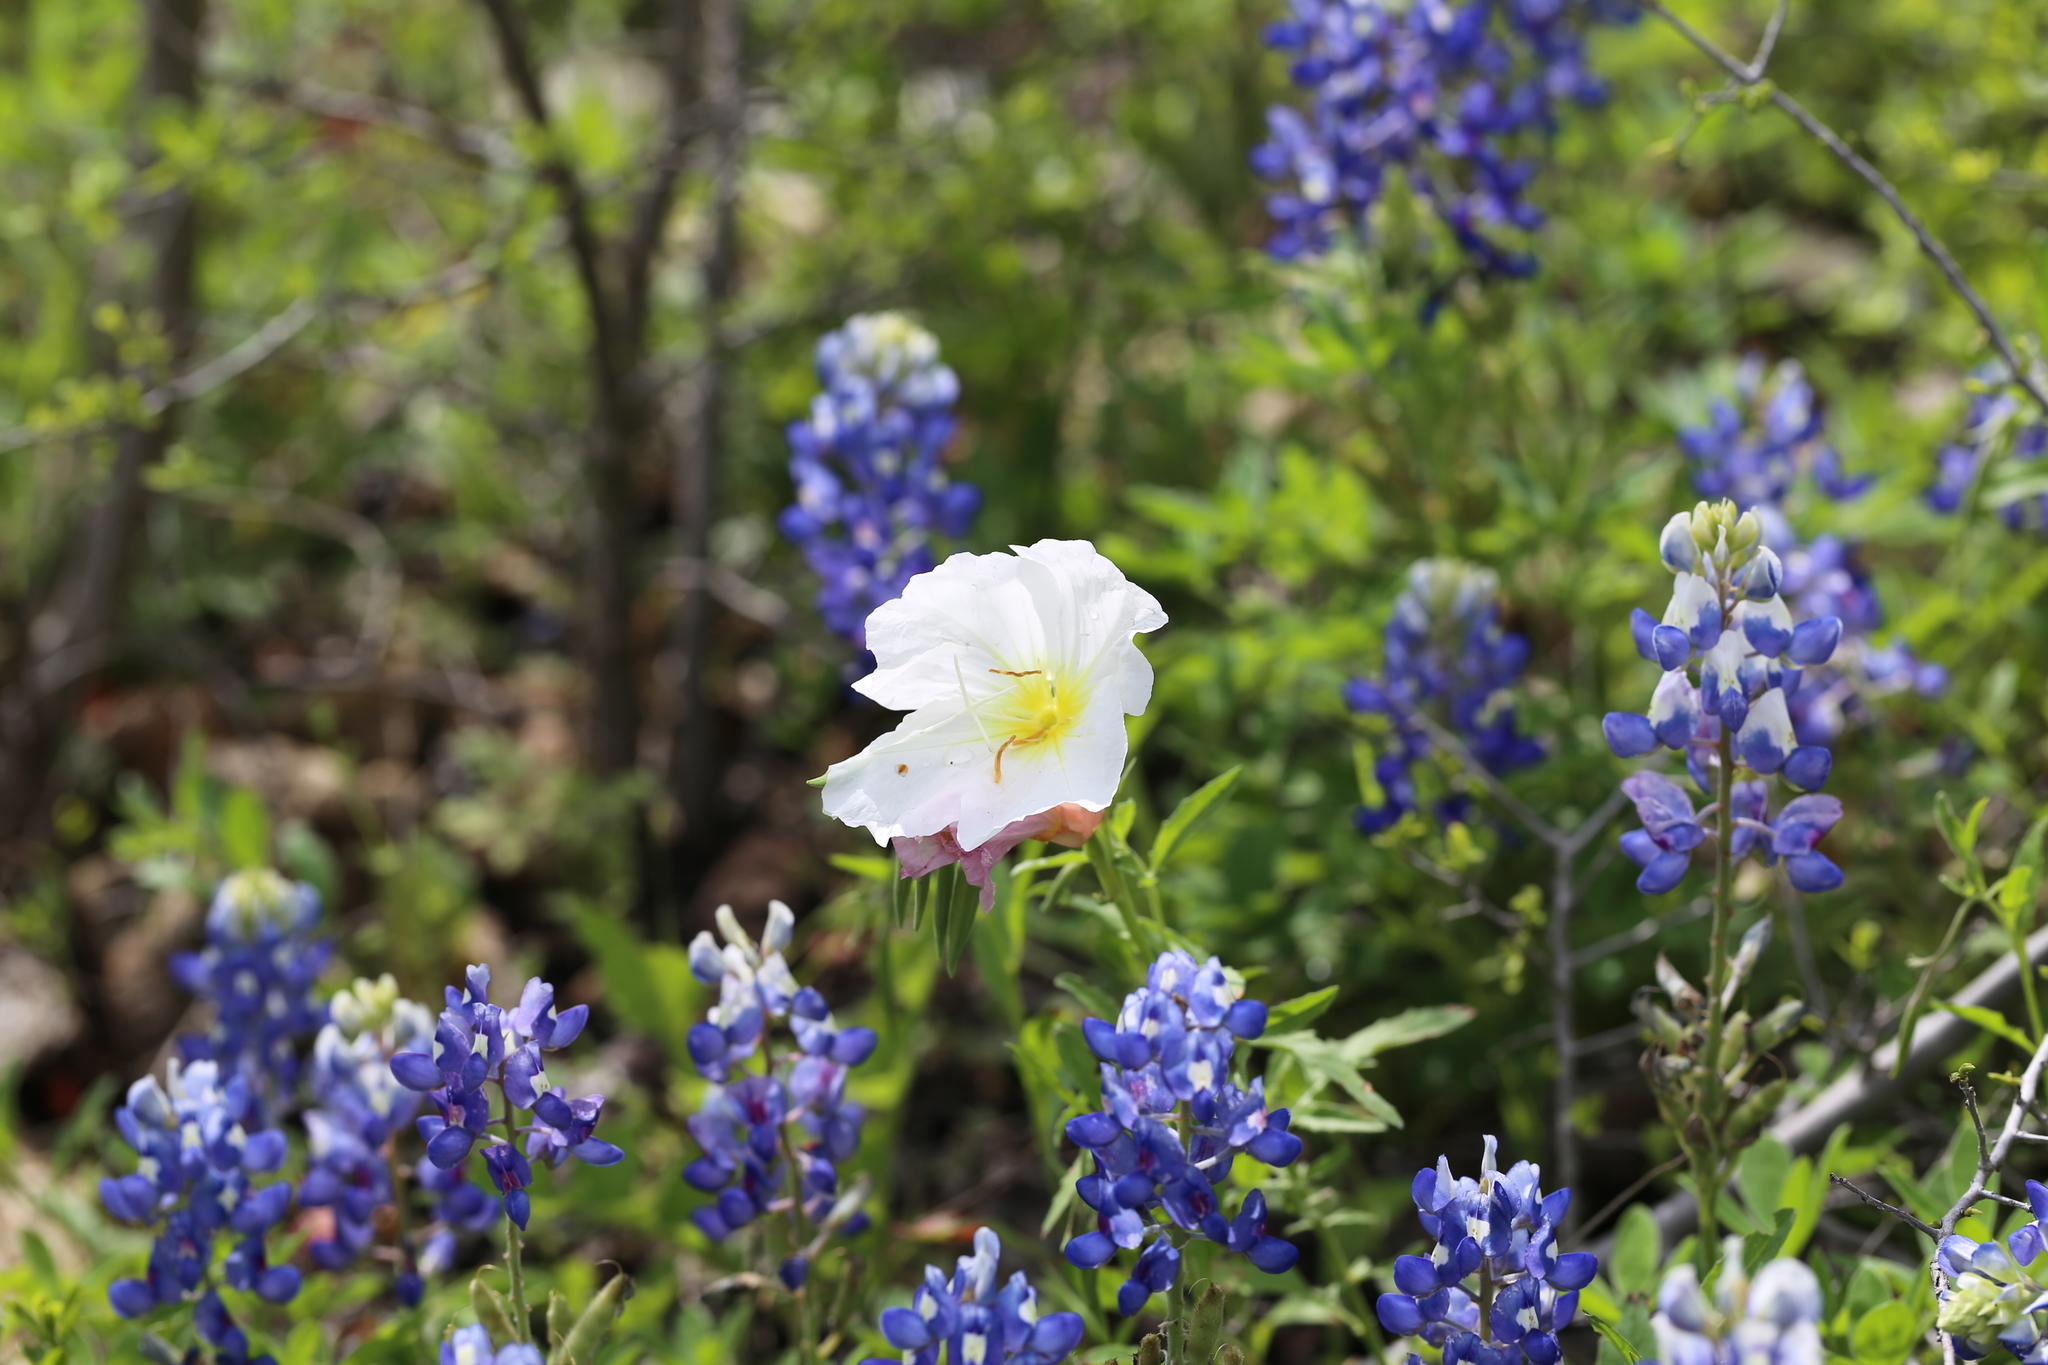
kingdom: Plantae
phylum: Tracheophyta
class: Magnoliopsida
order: Myrtales
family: Onagraceae
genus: Oenothera
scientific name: Oenothera speciosa
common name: White evening-primrose
